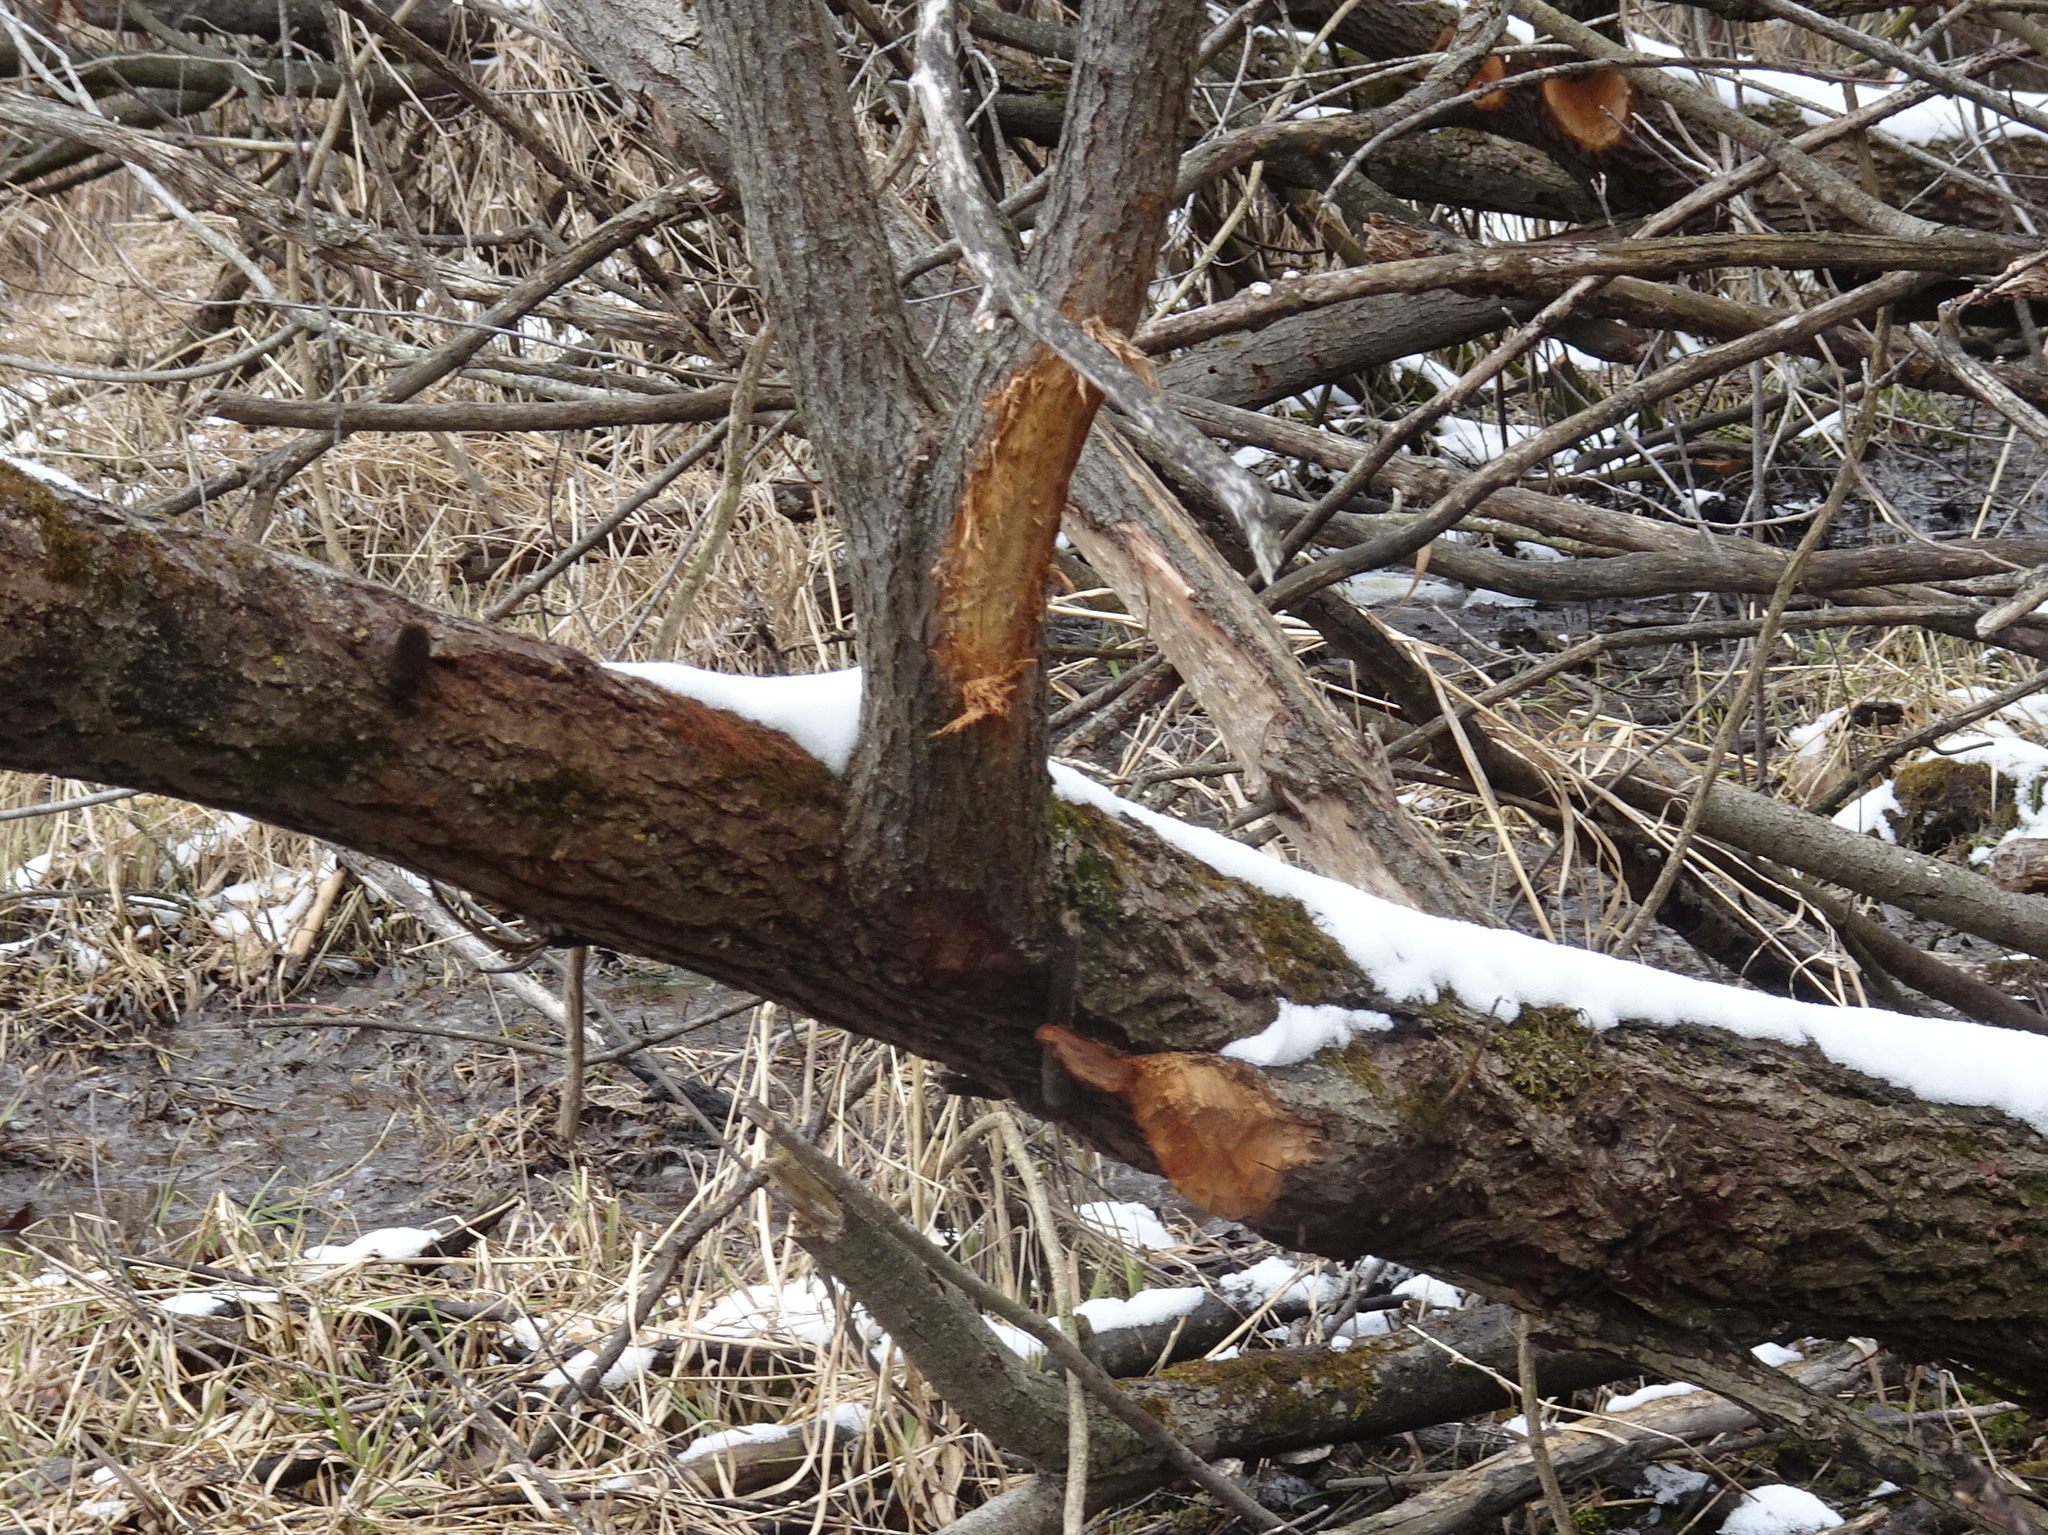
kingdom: Animalia
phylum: Chordata
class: Mammalia
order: Rodentia
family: Castoridae
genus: Castor
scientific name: Castor canadensis
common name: American beaver
